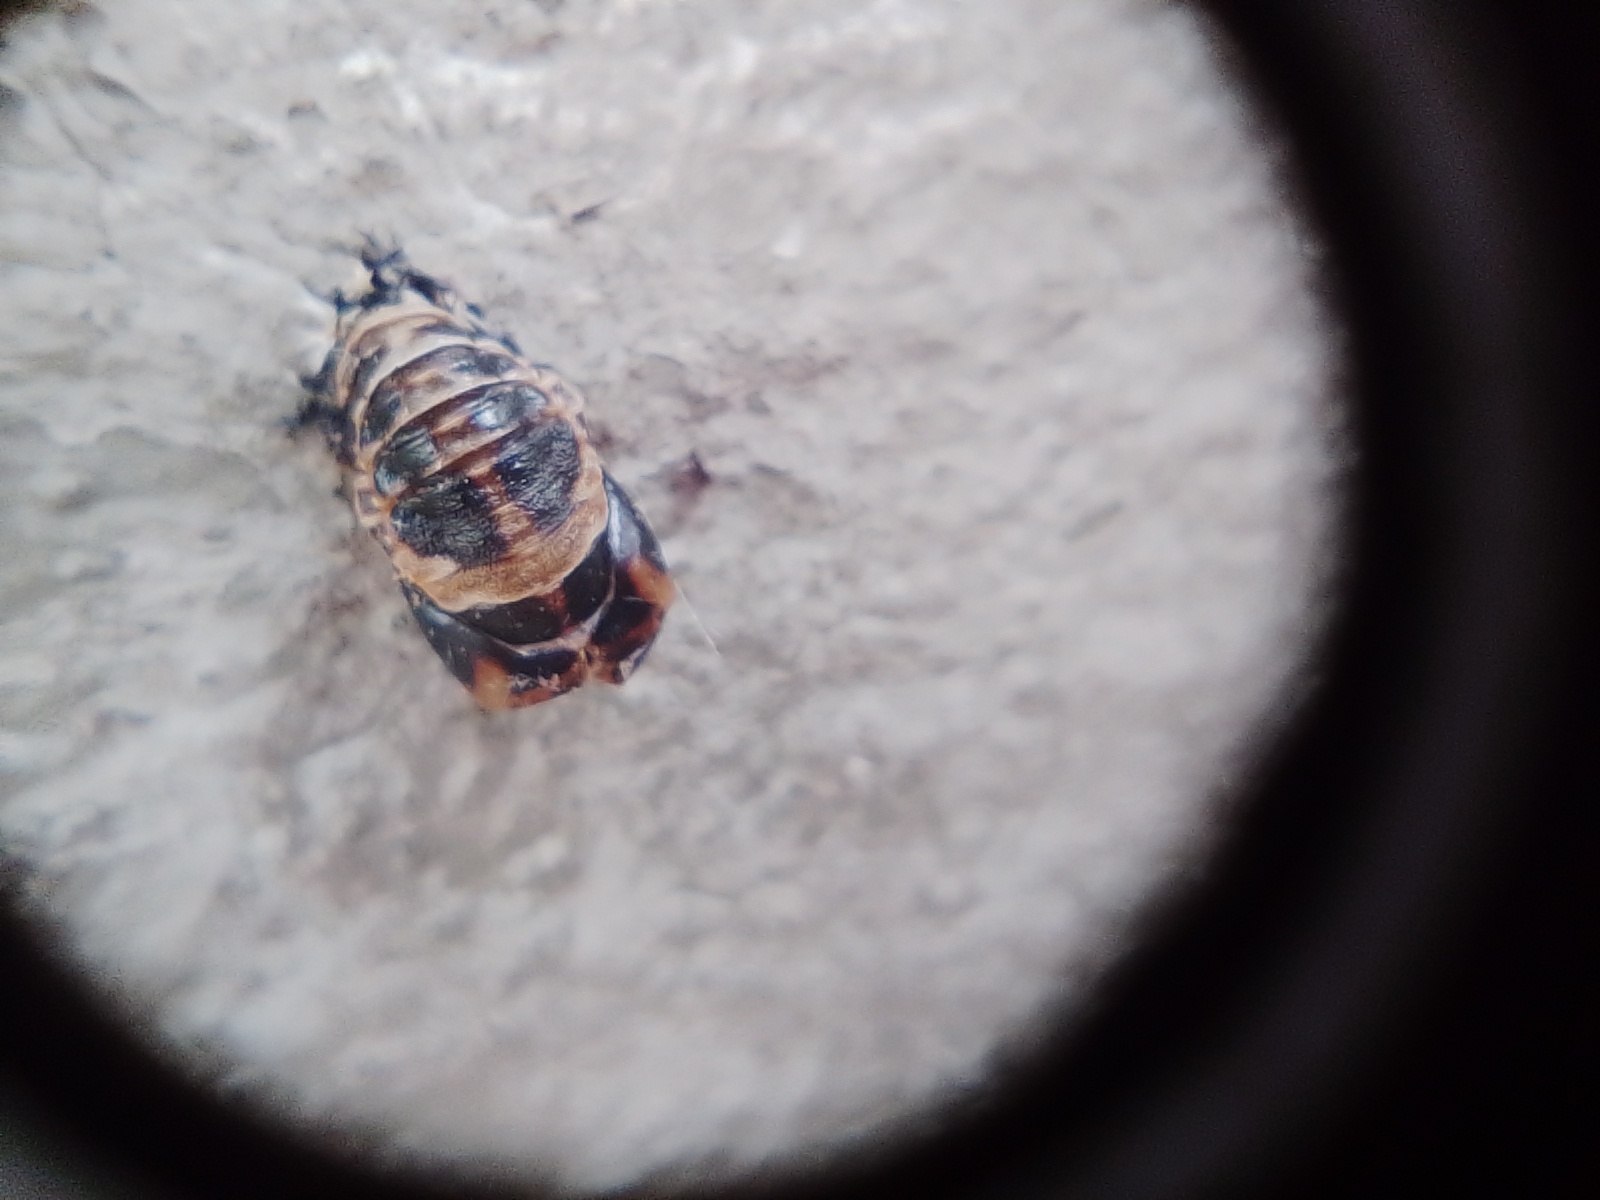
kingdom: Animalia
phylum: Arthropoda
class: Insecta
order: Coleoptera
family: Coccinellidae
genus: Harmonia
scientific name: Harmonia axyridis
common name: Harlequin ladybird
